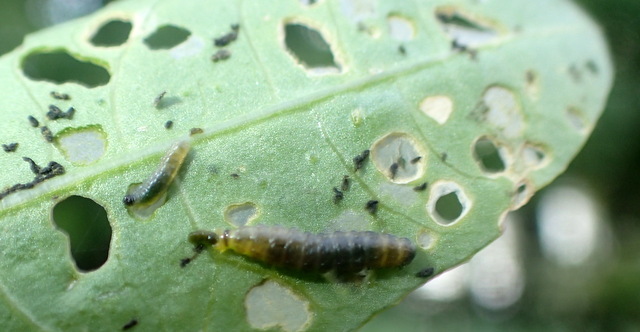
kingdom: Animalia
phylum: Arthropoda
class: Insecta
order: Coleoptera
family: Chrysomelidae
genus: Agasicles
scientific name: Agasicles hygrophila
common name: Alligatorweed flea beetle
